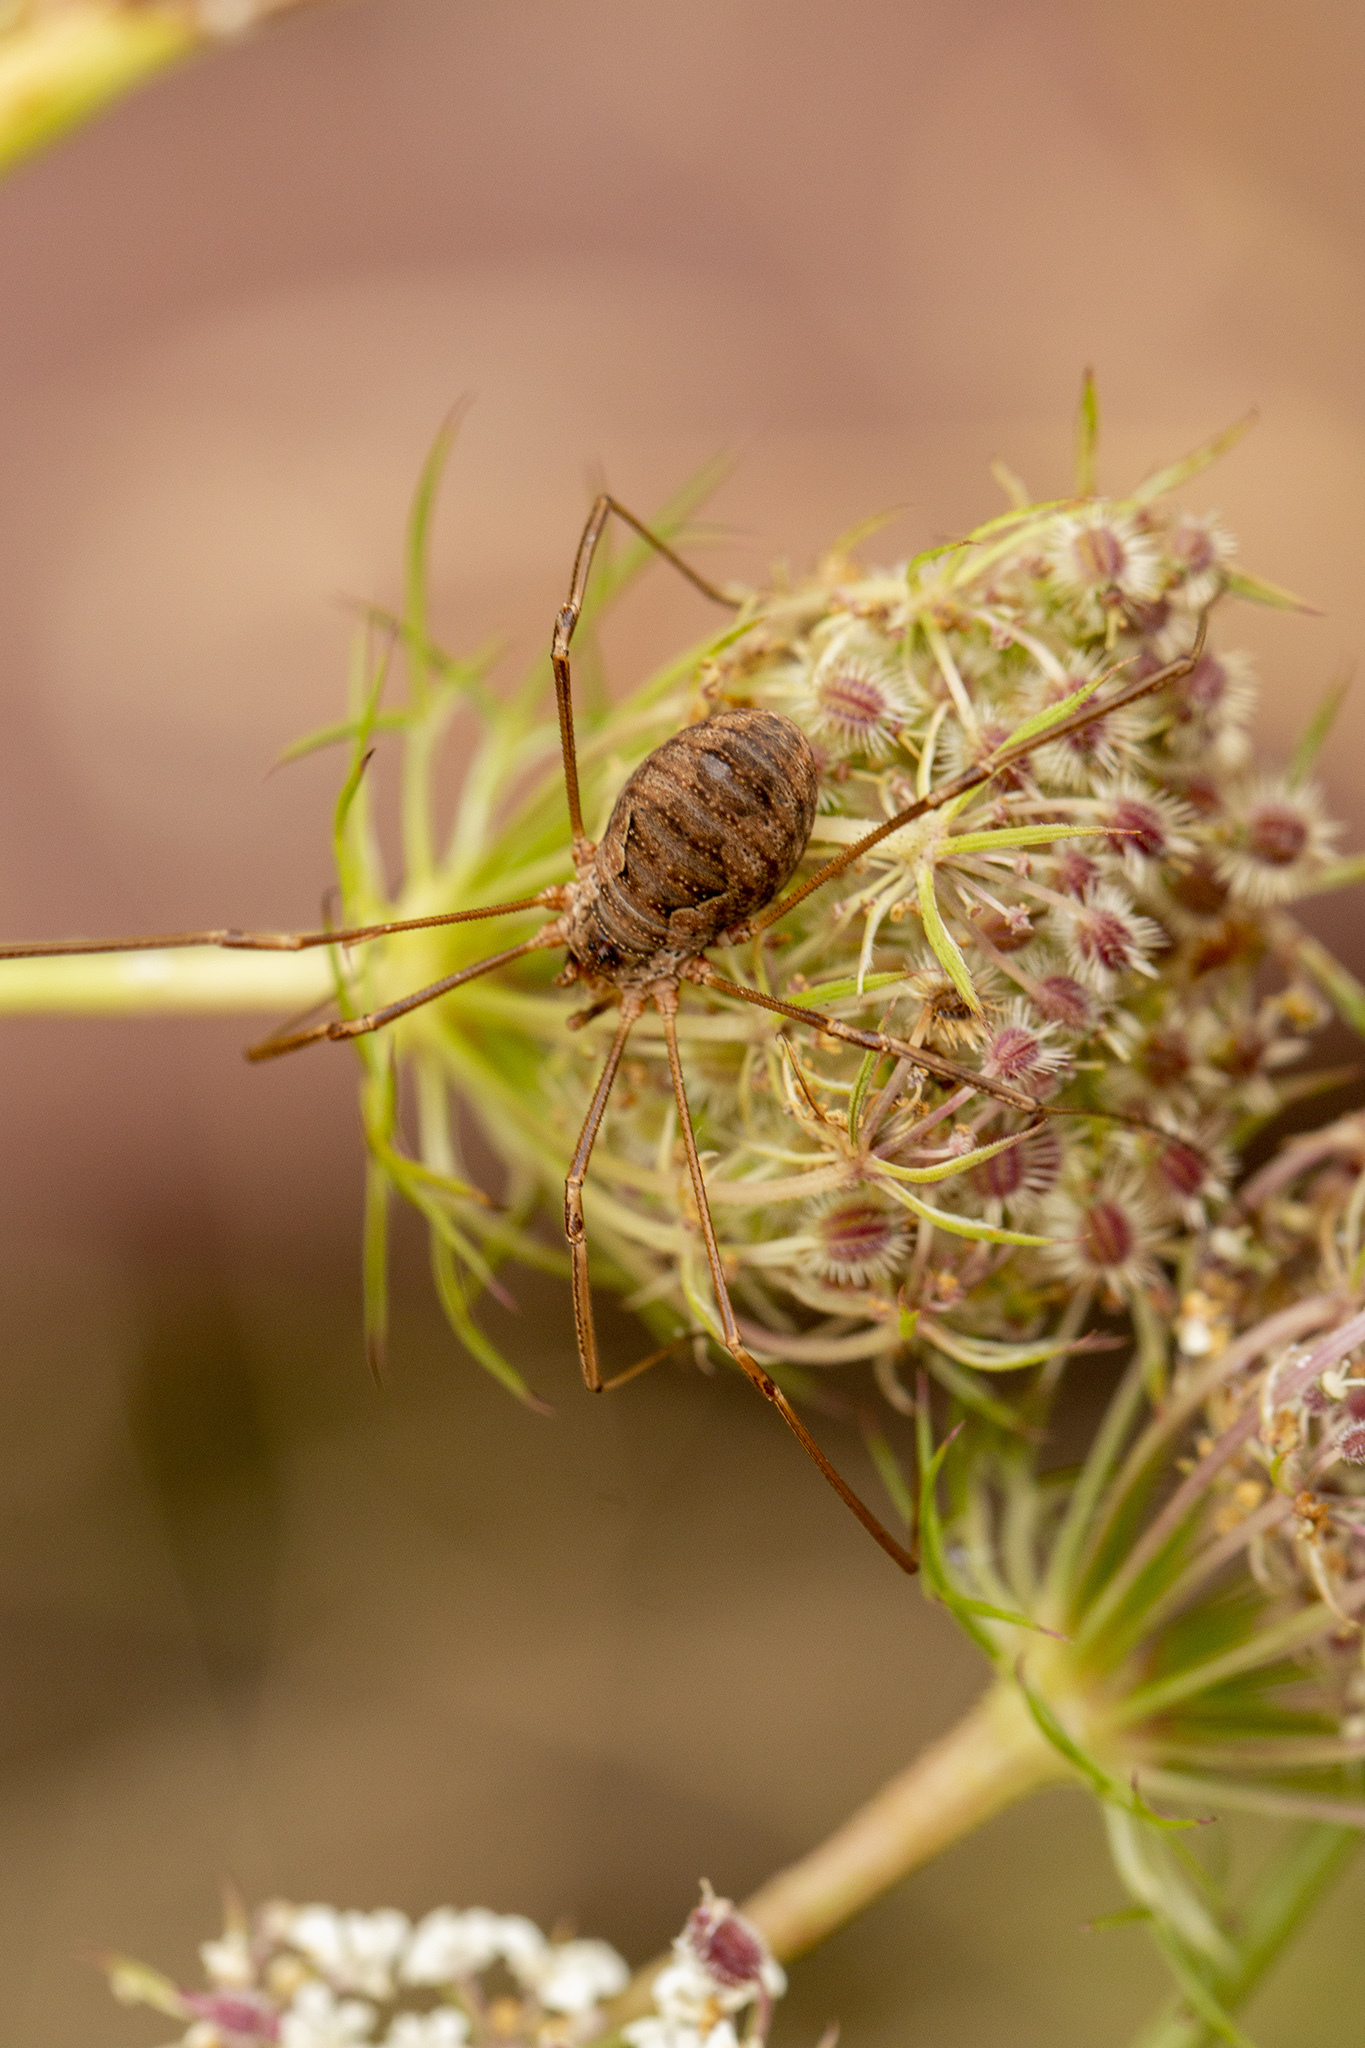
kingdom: Animalia
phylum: Arthropoda
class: Arachnida
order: Opiliones
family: Phalangiidae
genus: Phalangium
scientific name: Phalangium opilio
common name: Daddy longleg
